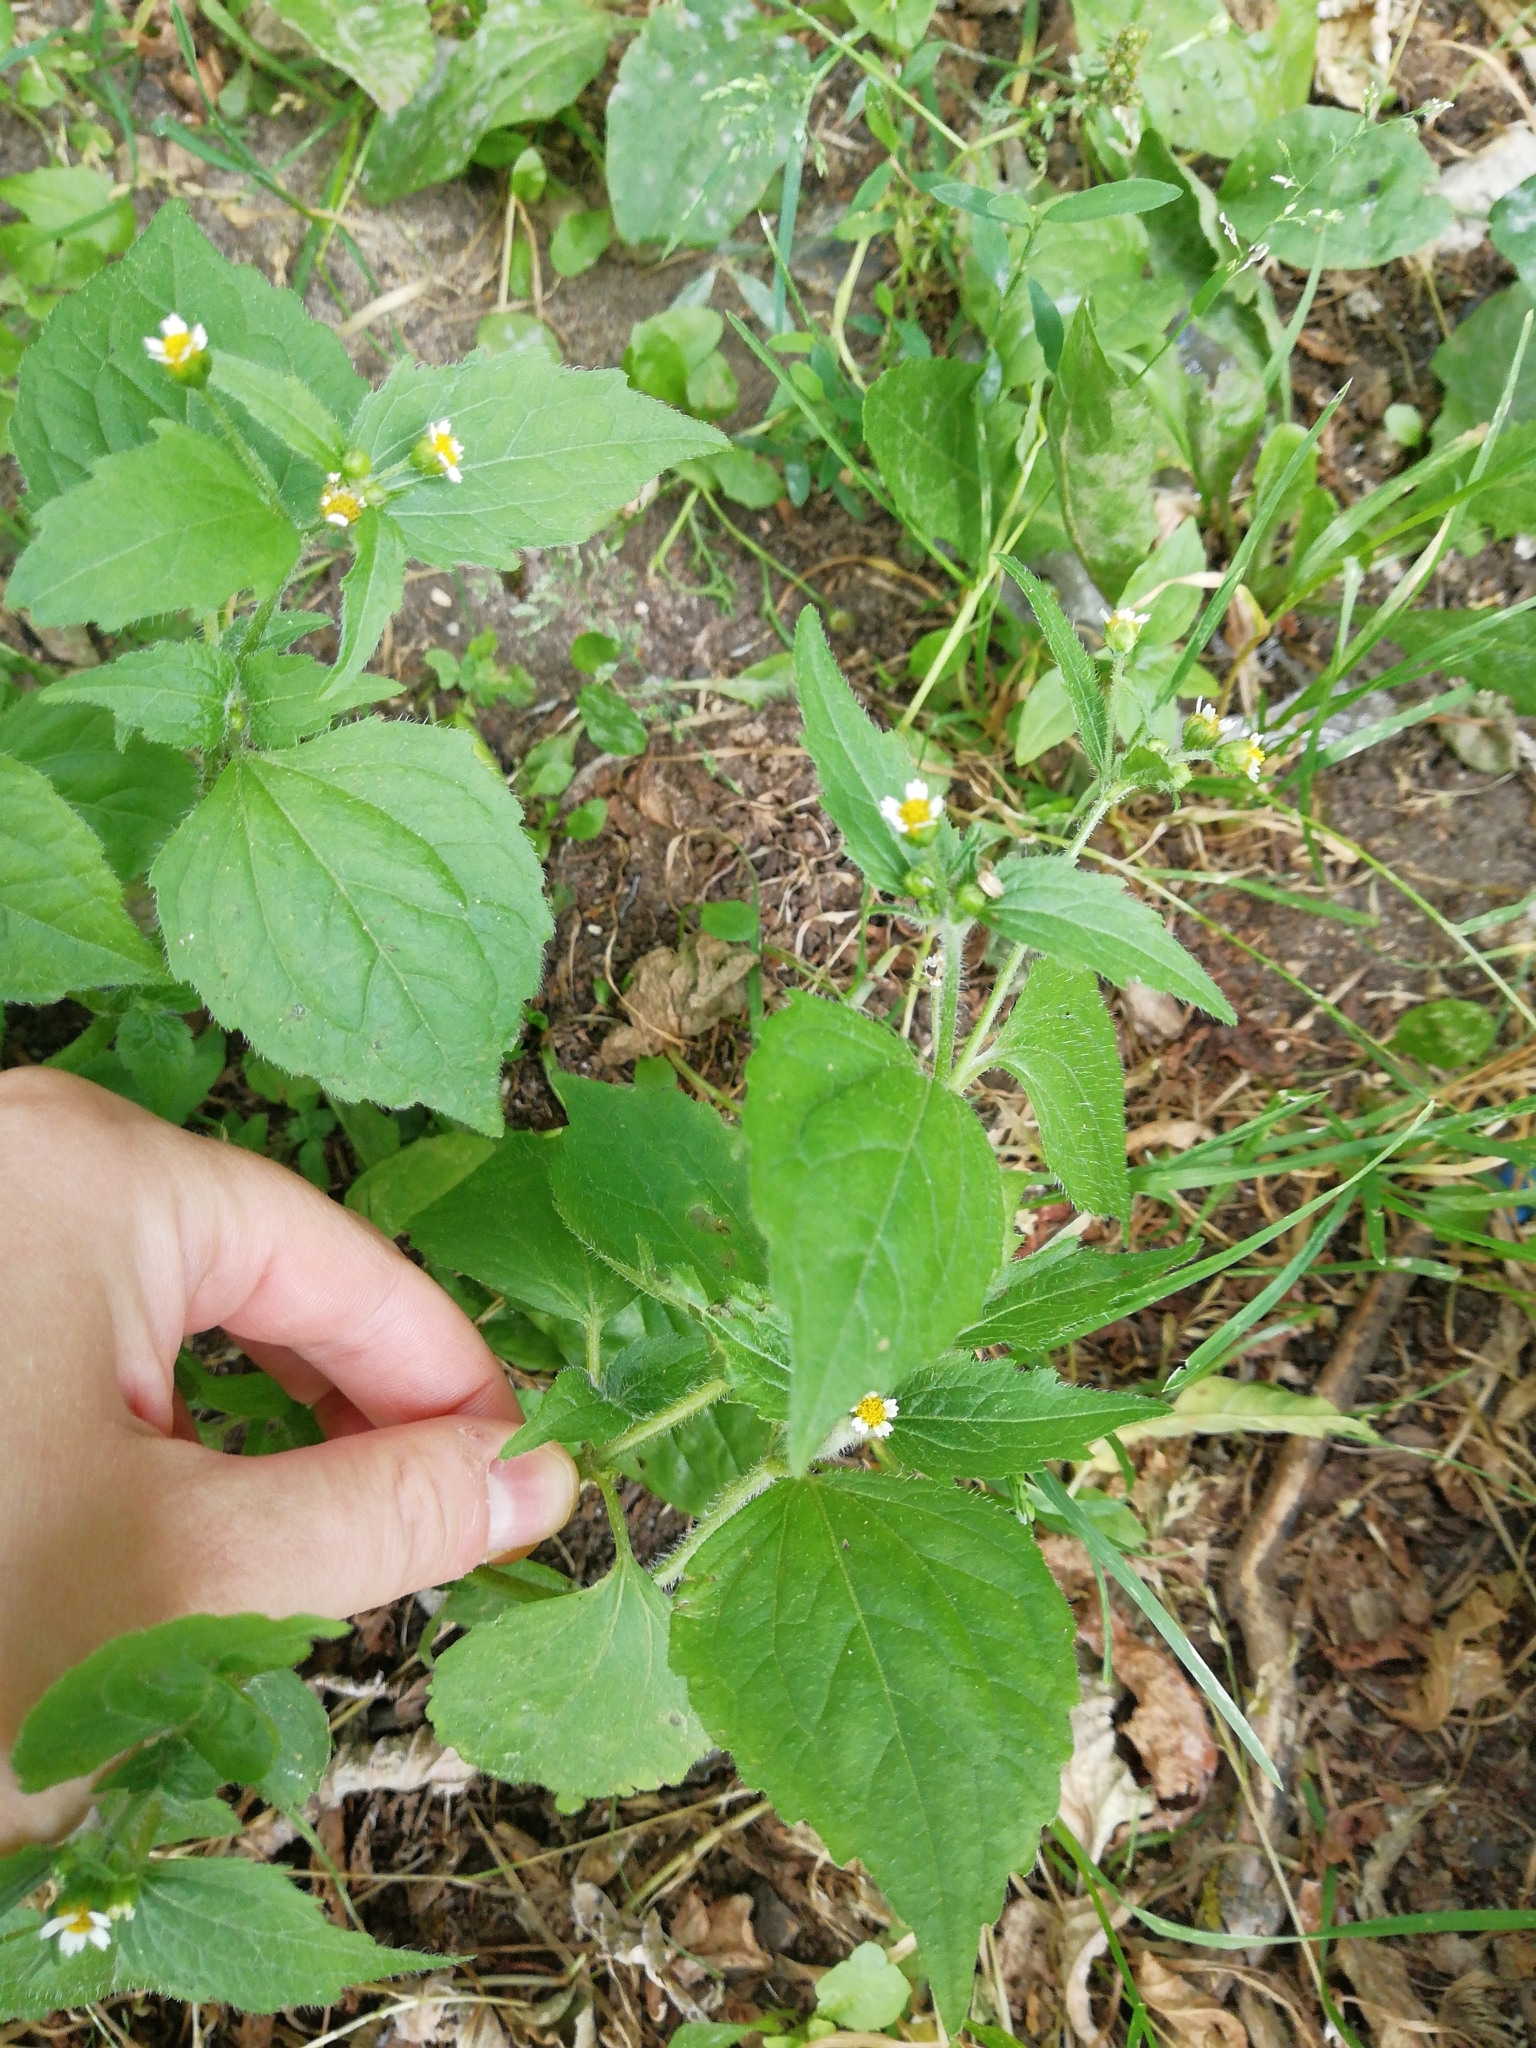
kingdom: Plantae
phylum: Tracheophyta
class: Magnoliopsida
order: Asterales
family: Asteraceae
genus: Galinsoga
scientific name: Galinsoga quadriradiata
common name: Shaggy soldier
